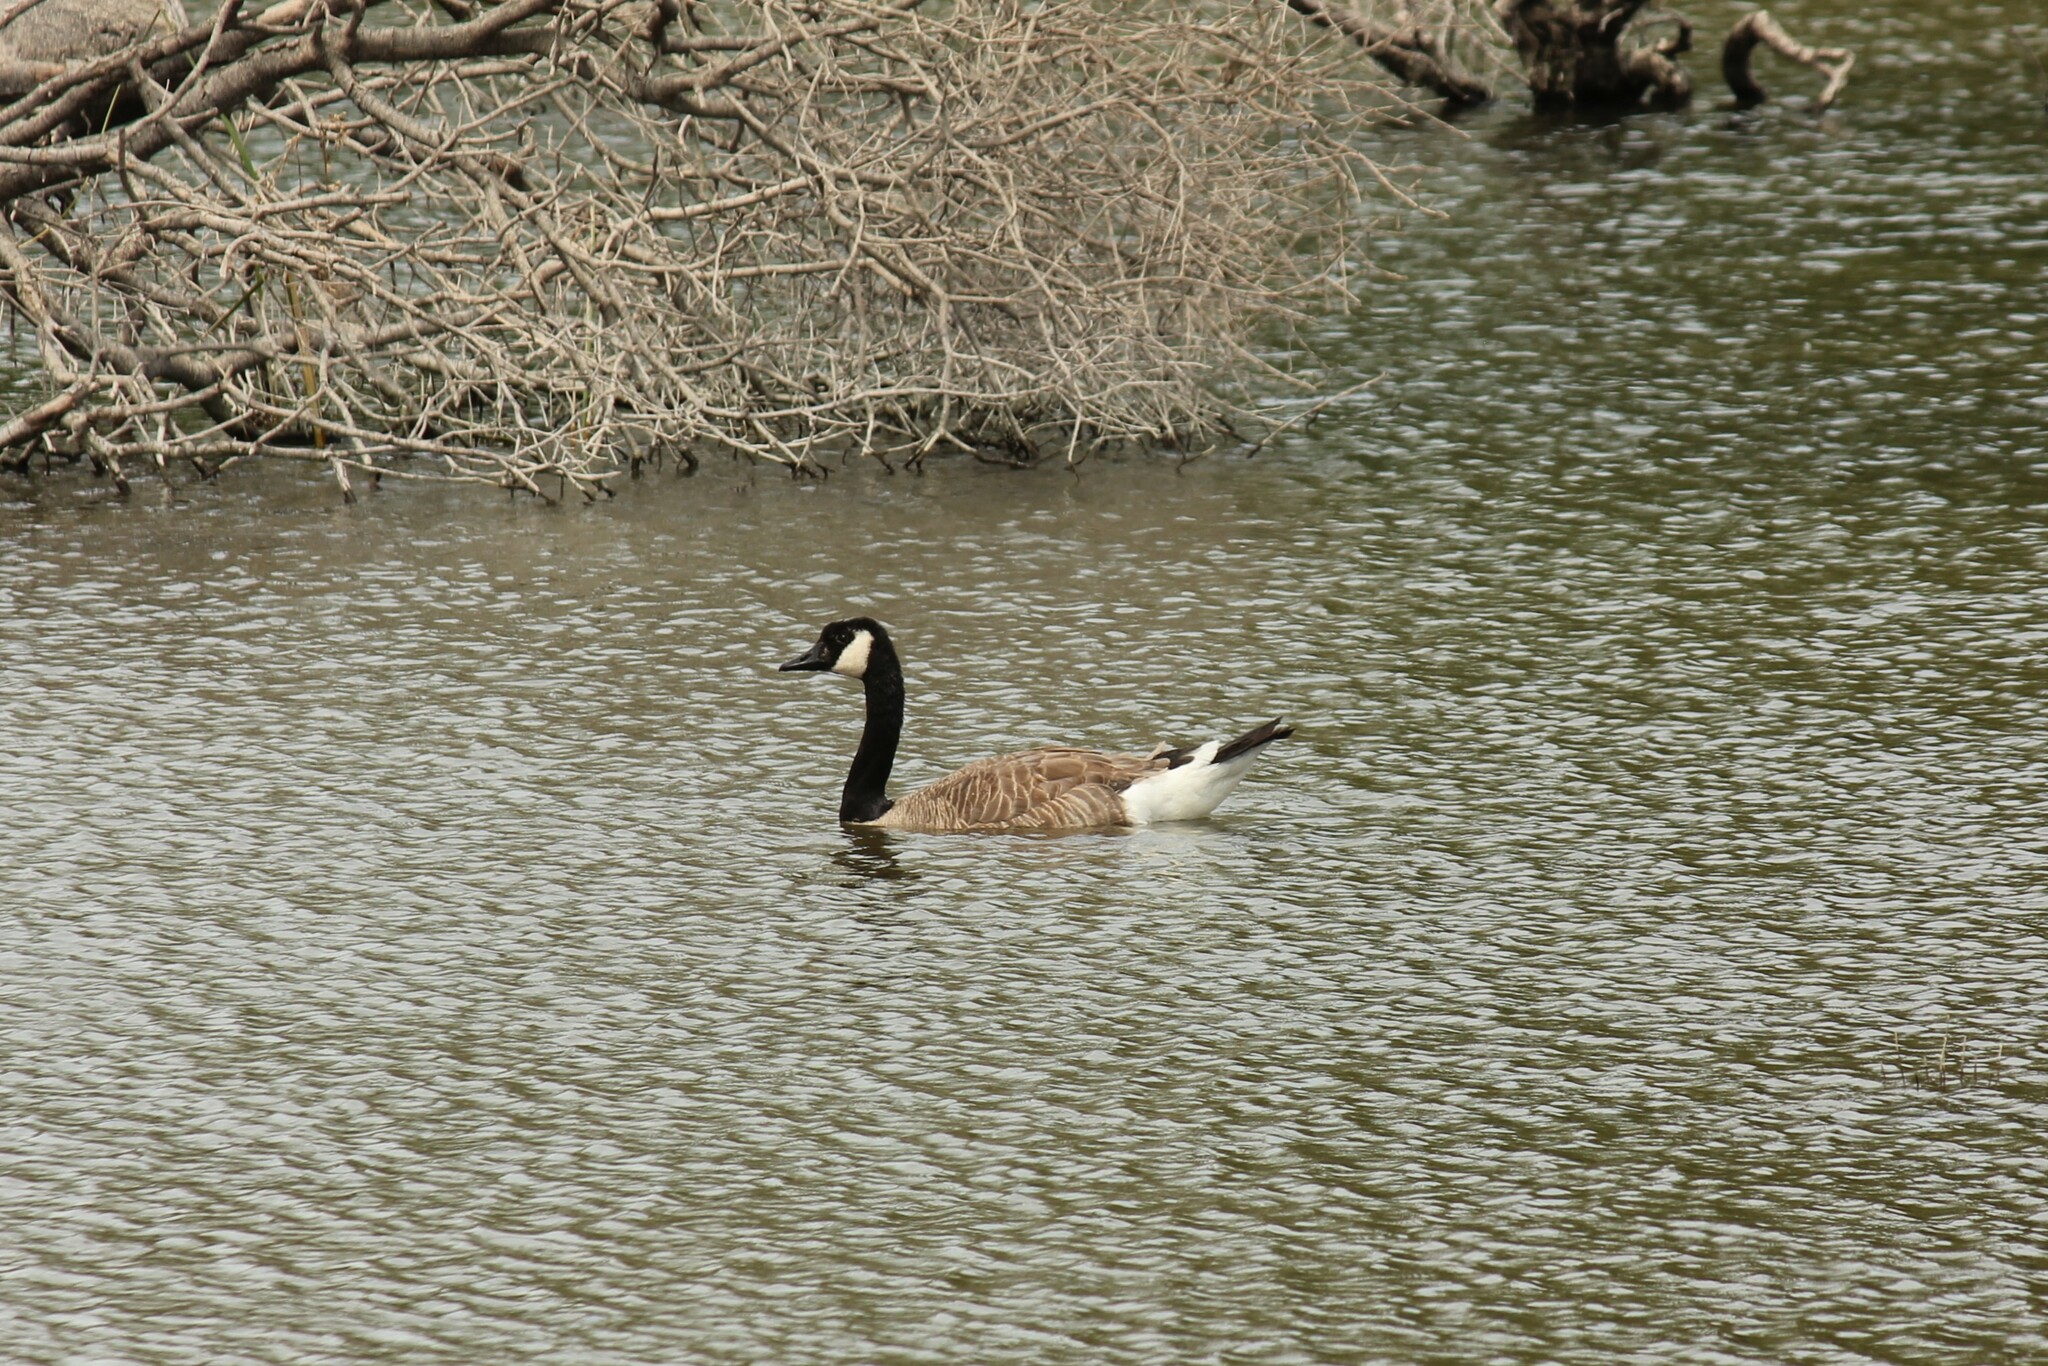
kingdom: Animalia
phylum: Chordata
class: Aves
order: Anseriformes
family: Anatidae
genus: Branta
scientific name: Branta canadensis
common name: Canada goose
